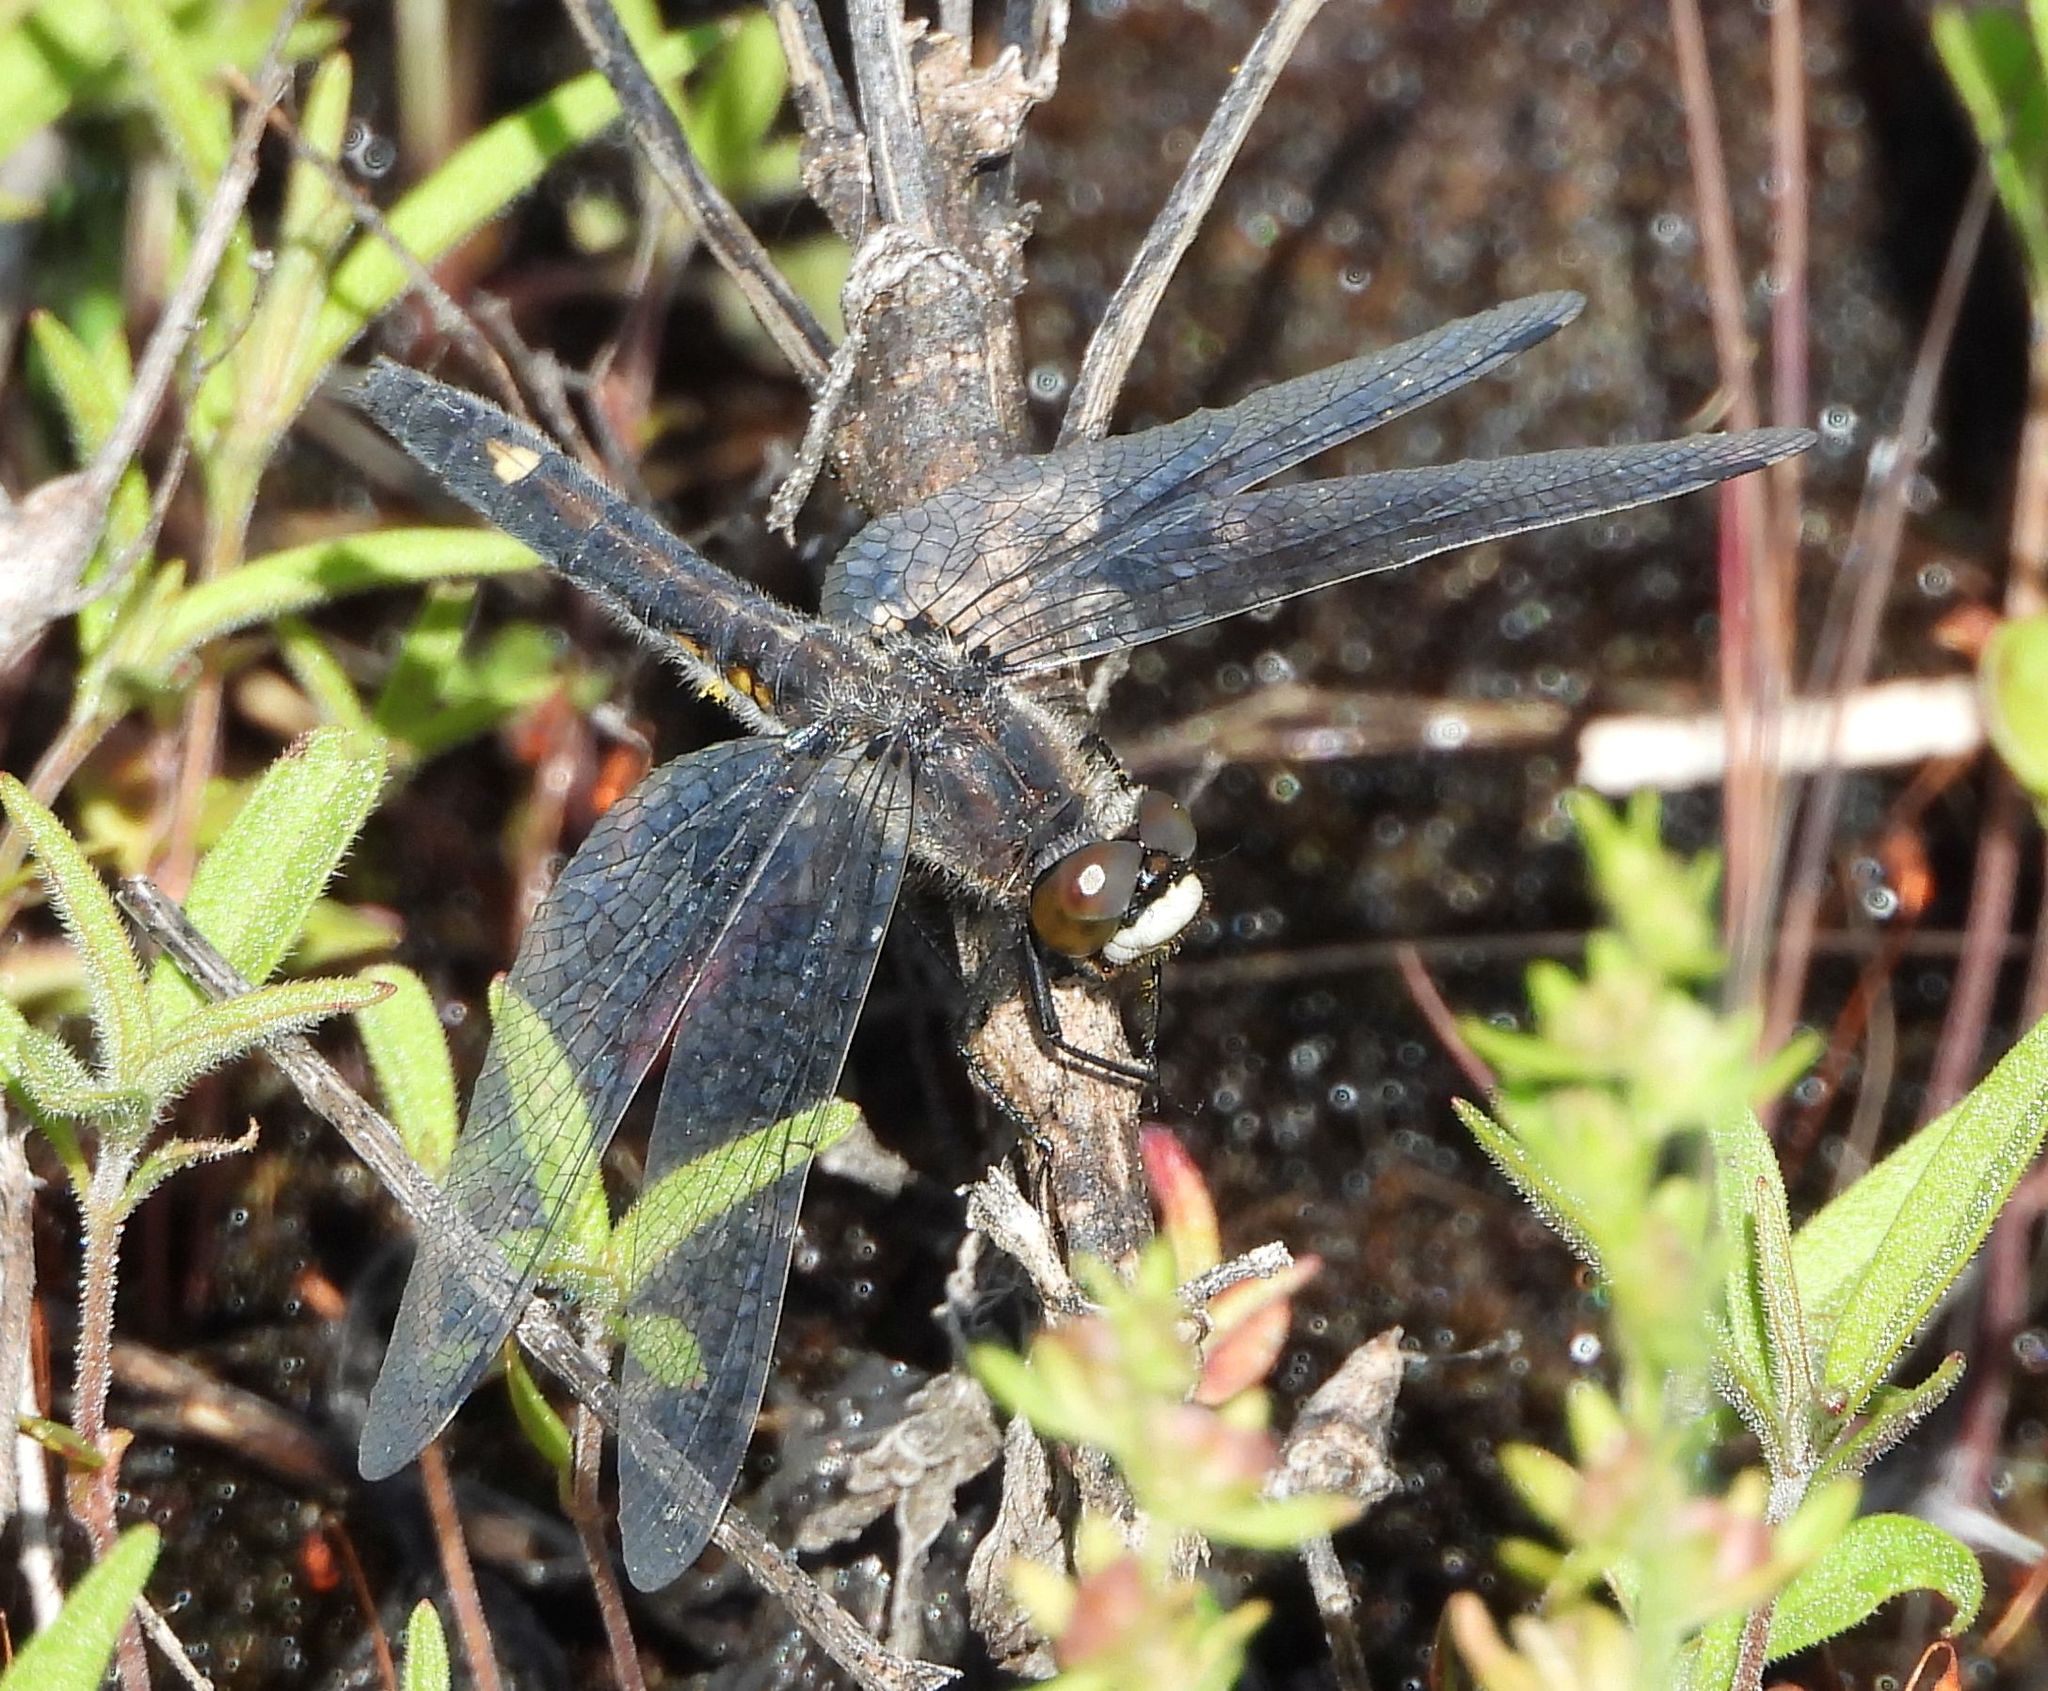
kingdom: Animalia
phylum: Arthropoda
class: Insecta
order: Odonata
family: Libellulidae
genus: Leucorrhinia
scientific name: Leucorrhinia intacta
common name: Dot-tailed whiteface
